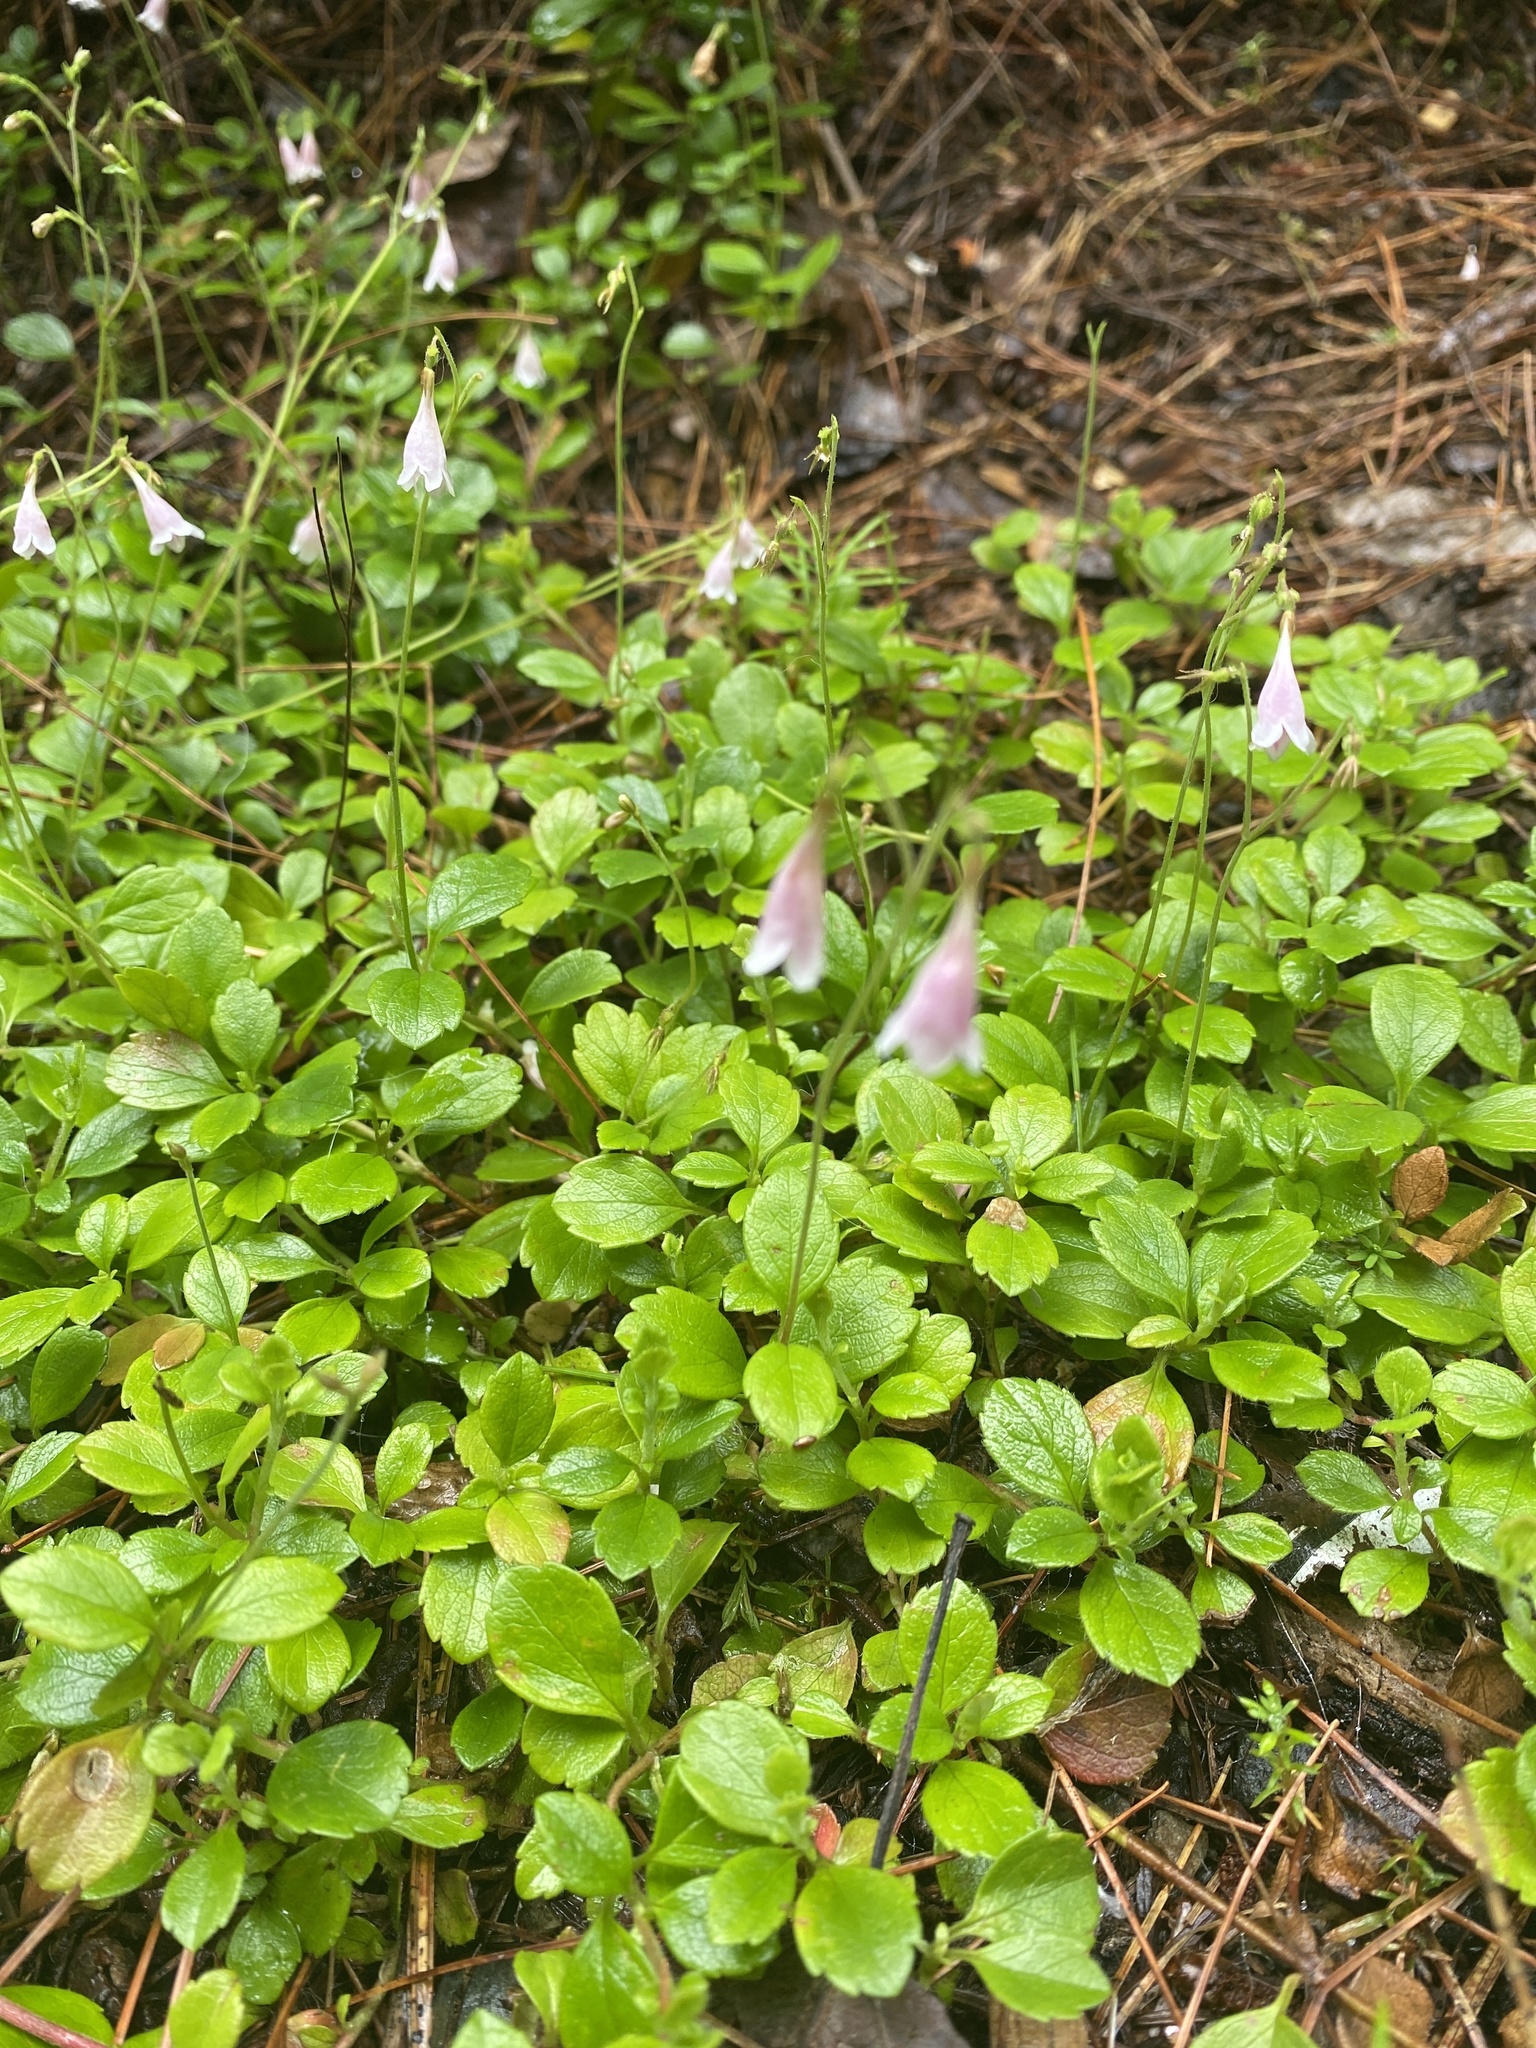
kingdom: Plantae
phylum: Tracheophyta
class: Magnoliopsida
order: Dipsacales
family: Caprifoliaceae
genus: Linnaea
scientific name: Linnaea borealis
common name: Twinflower
